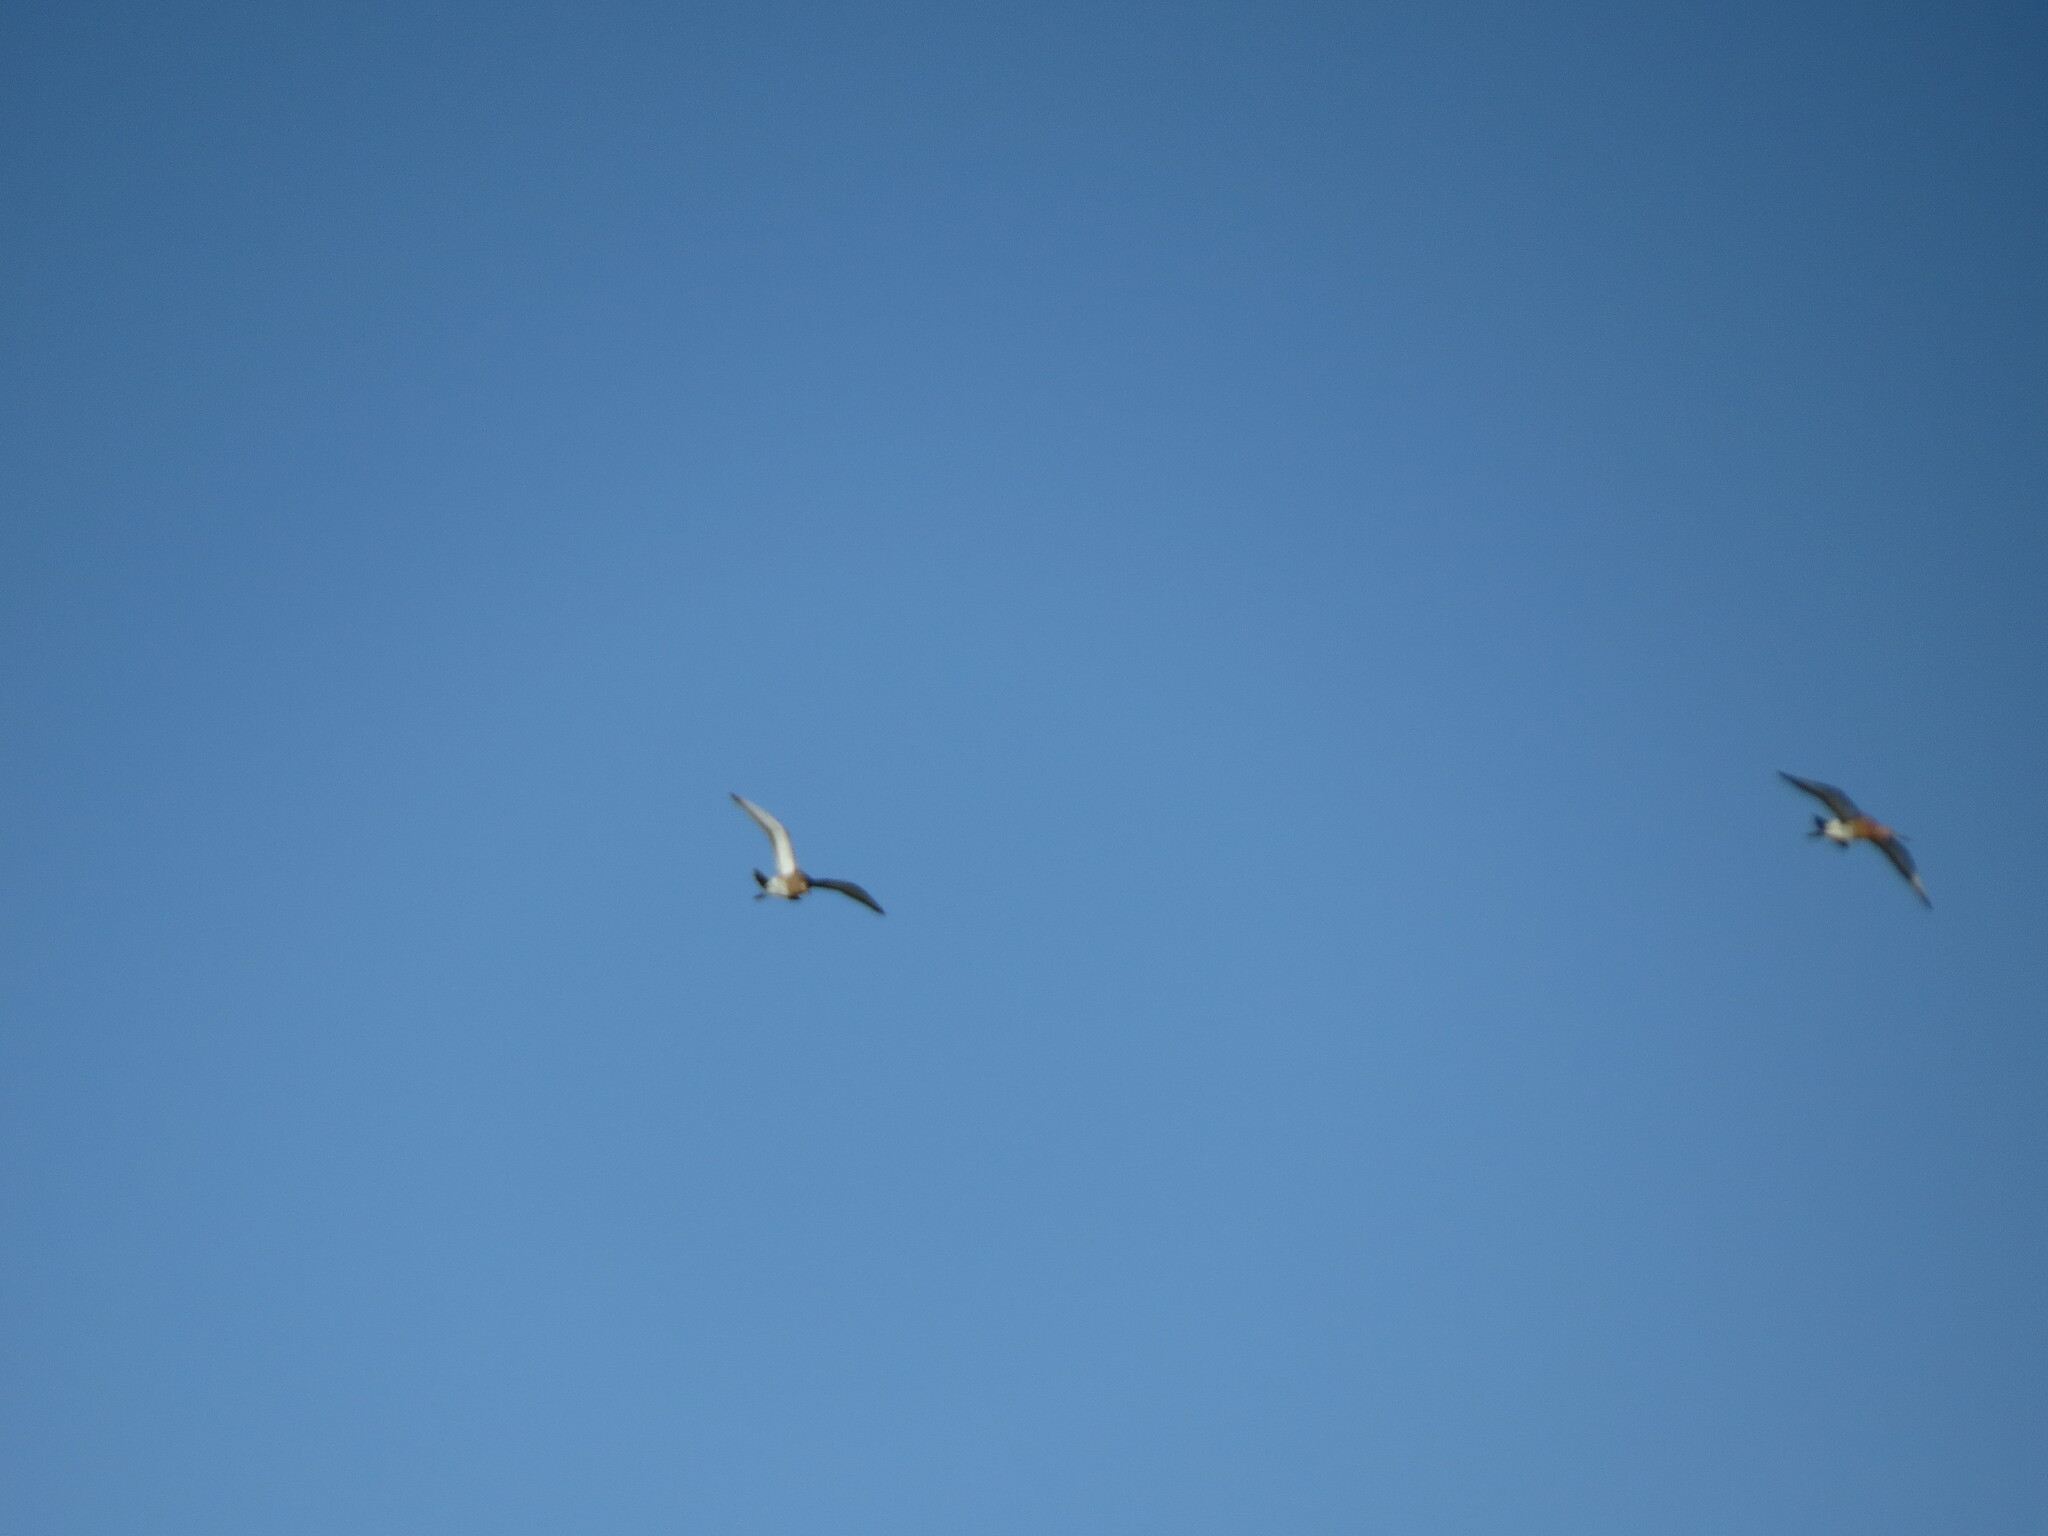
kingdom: Animalia
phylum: Chordata
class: Aves
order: Charadriiformes
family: Scolopacidae
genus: Limosa
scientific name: Limosa limosa
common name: Black-tailed godwit
